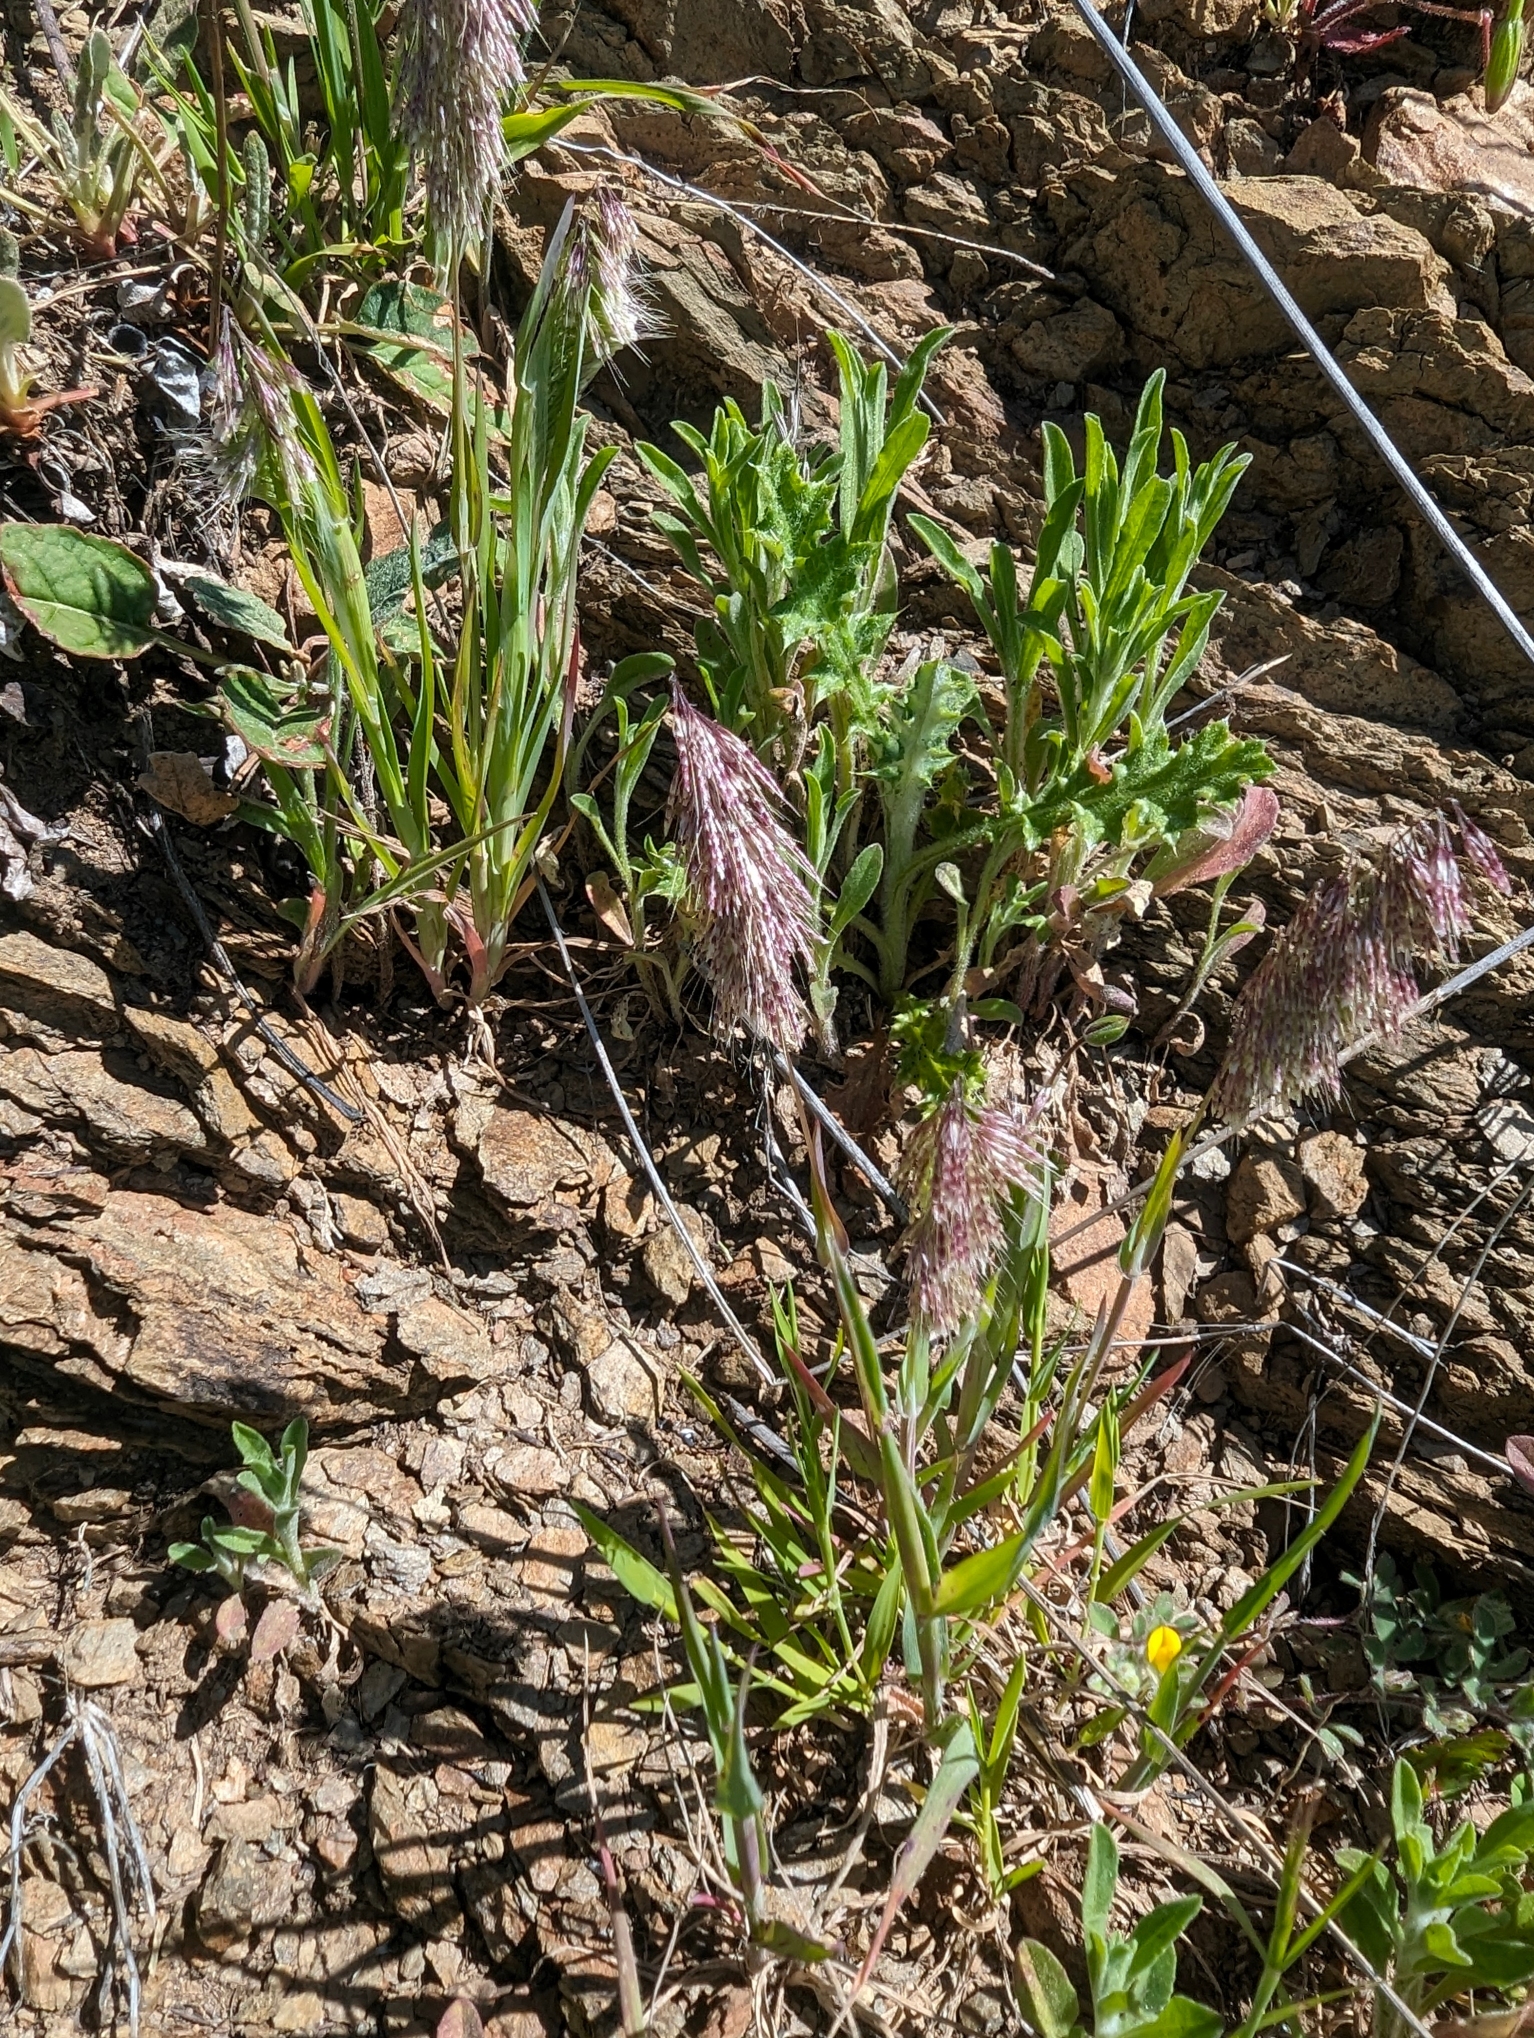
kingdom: Plantae
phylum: Tracheophyta
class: Liliopsida
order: Poales
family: Poaceae
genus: Lamarckia
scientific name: Lamarckia aurea
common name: Golden dog's-tail
